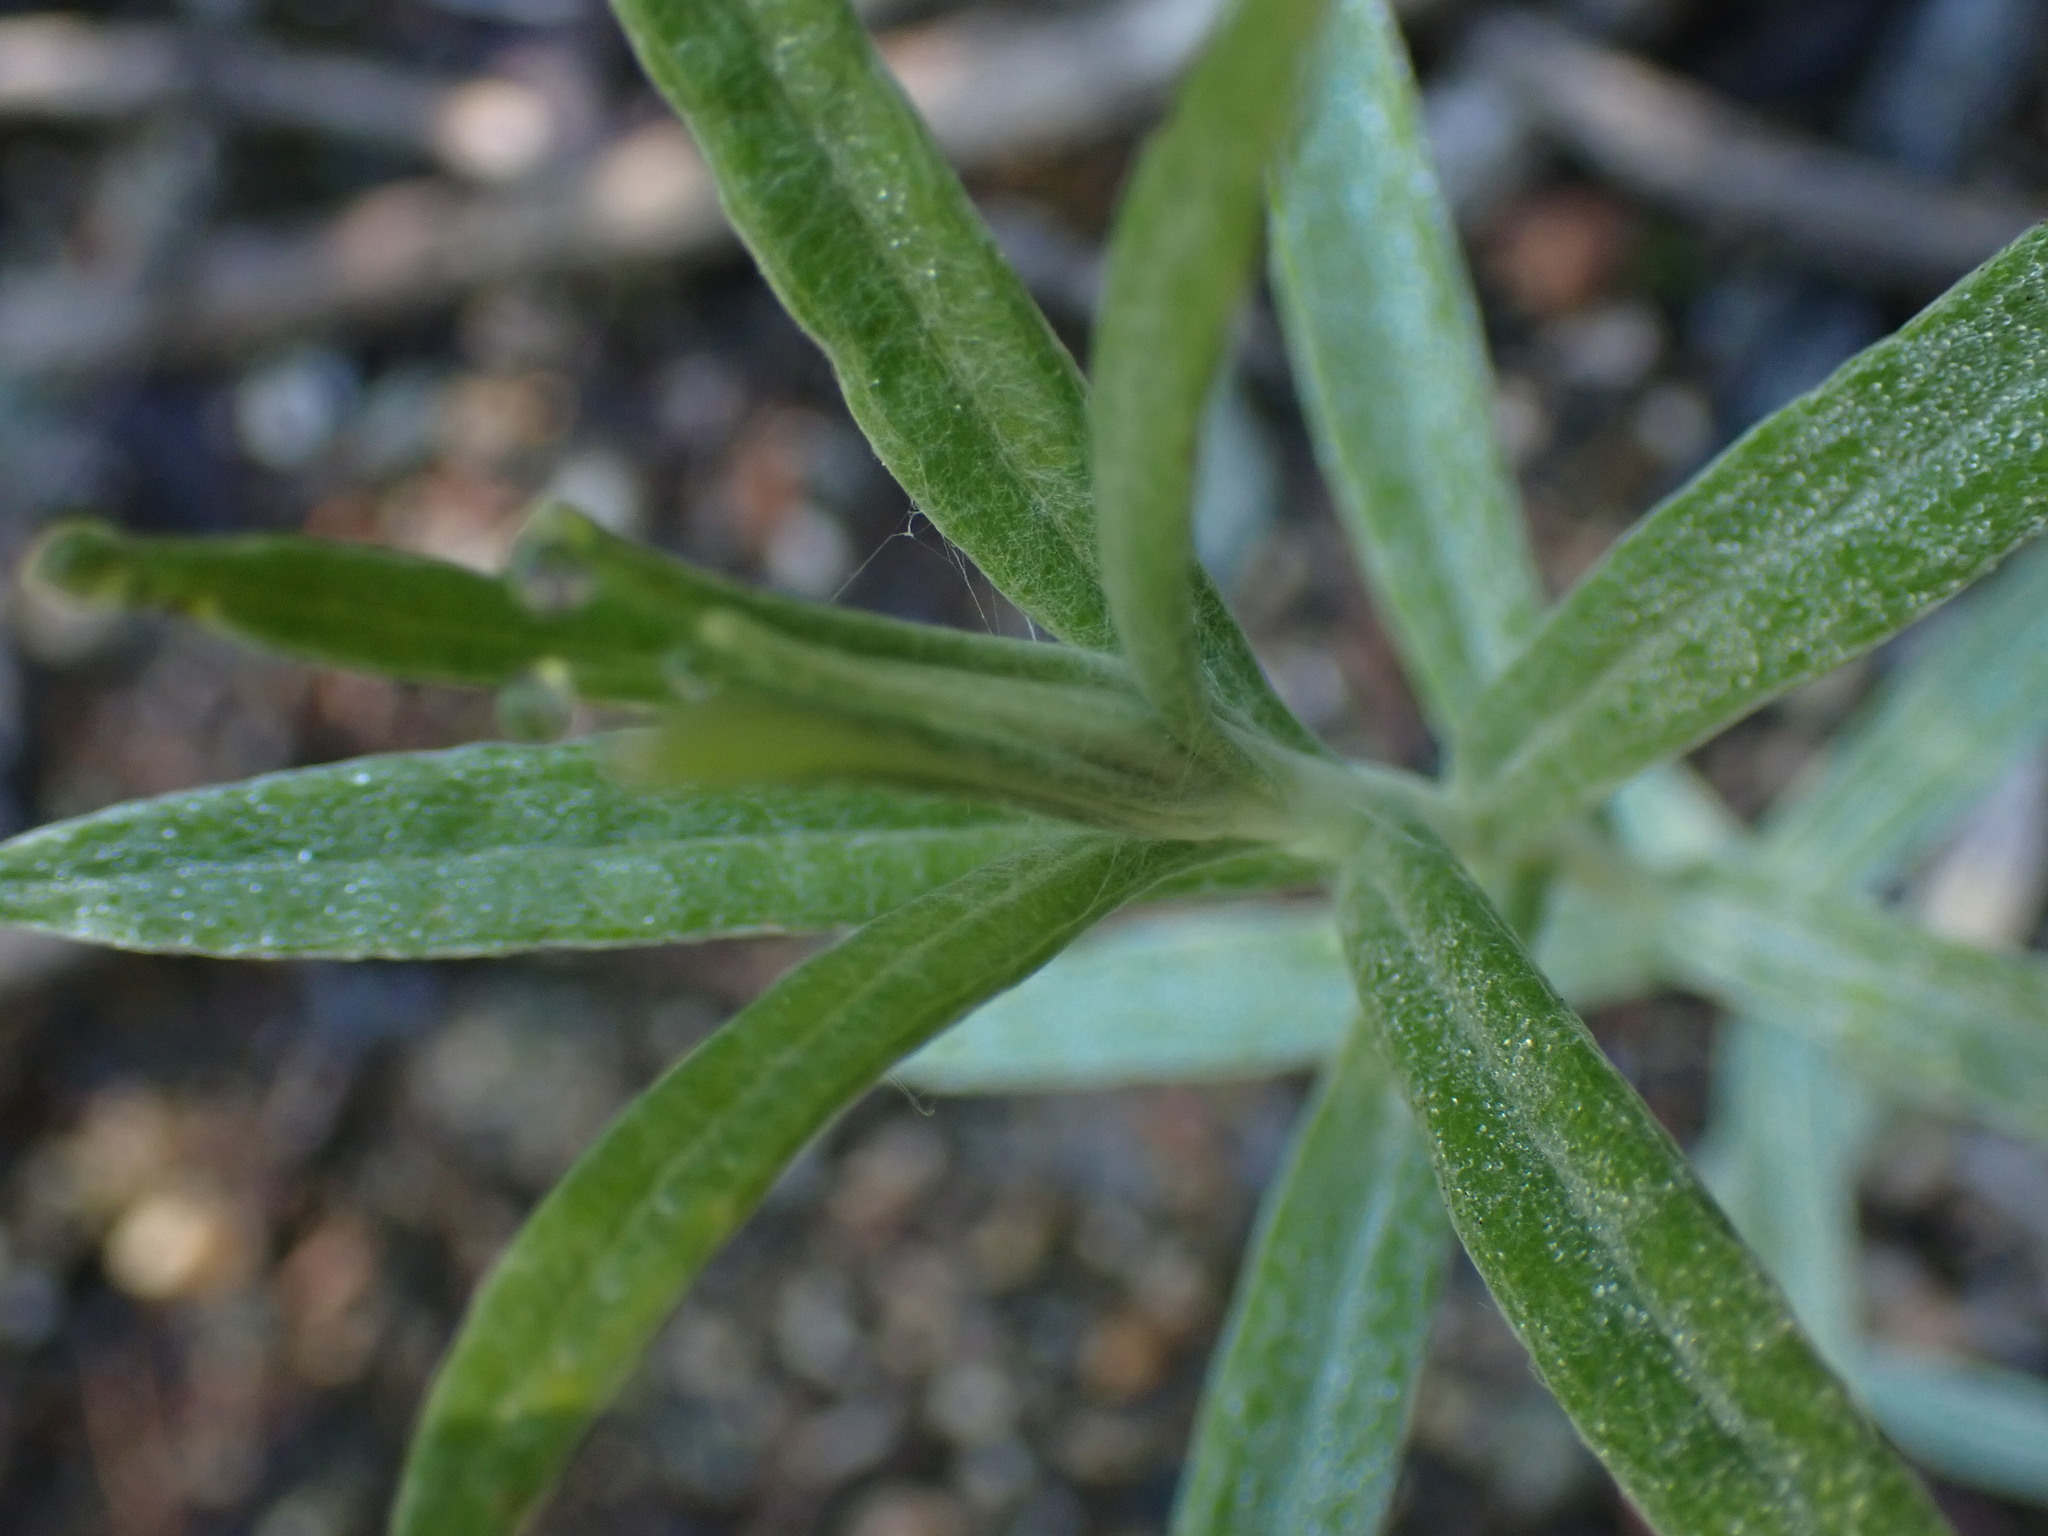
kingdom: Plantae
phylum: Tracheophyta
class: Magnoliopsida
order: Asterales
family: Asteraceae
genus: Anaphalis
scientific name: Anaphalis margaritacea
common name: Pearly everlasting
